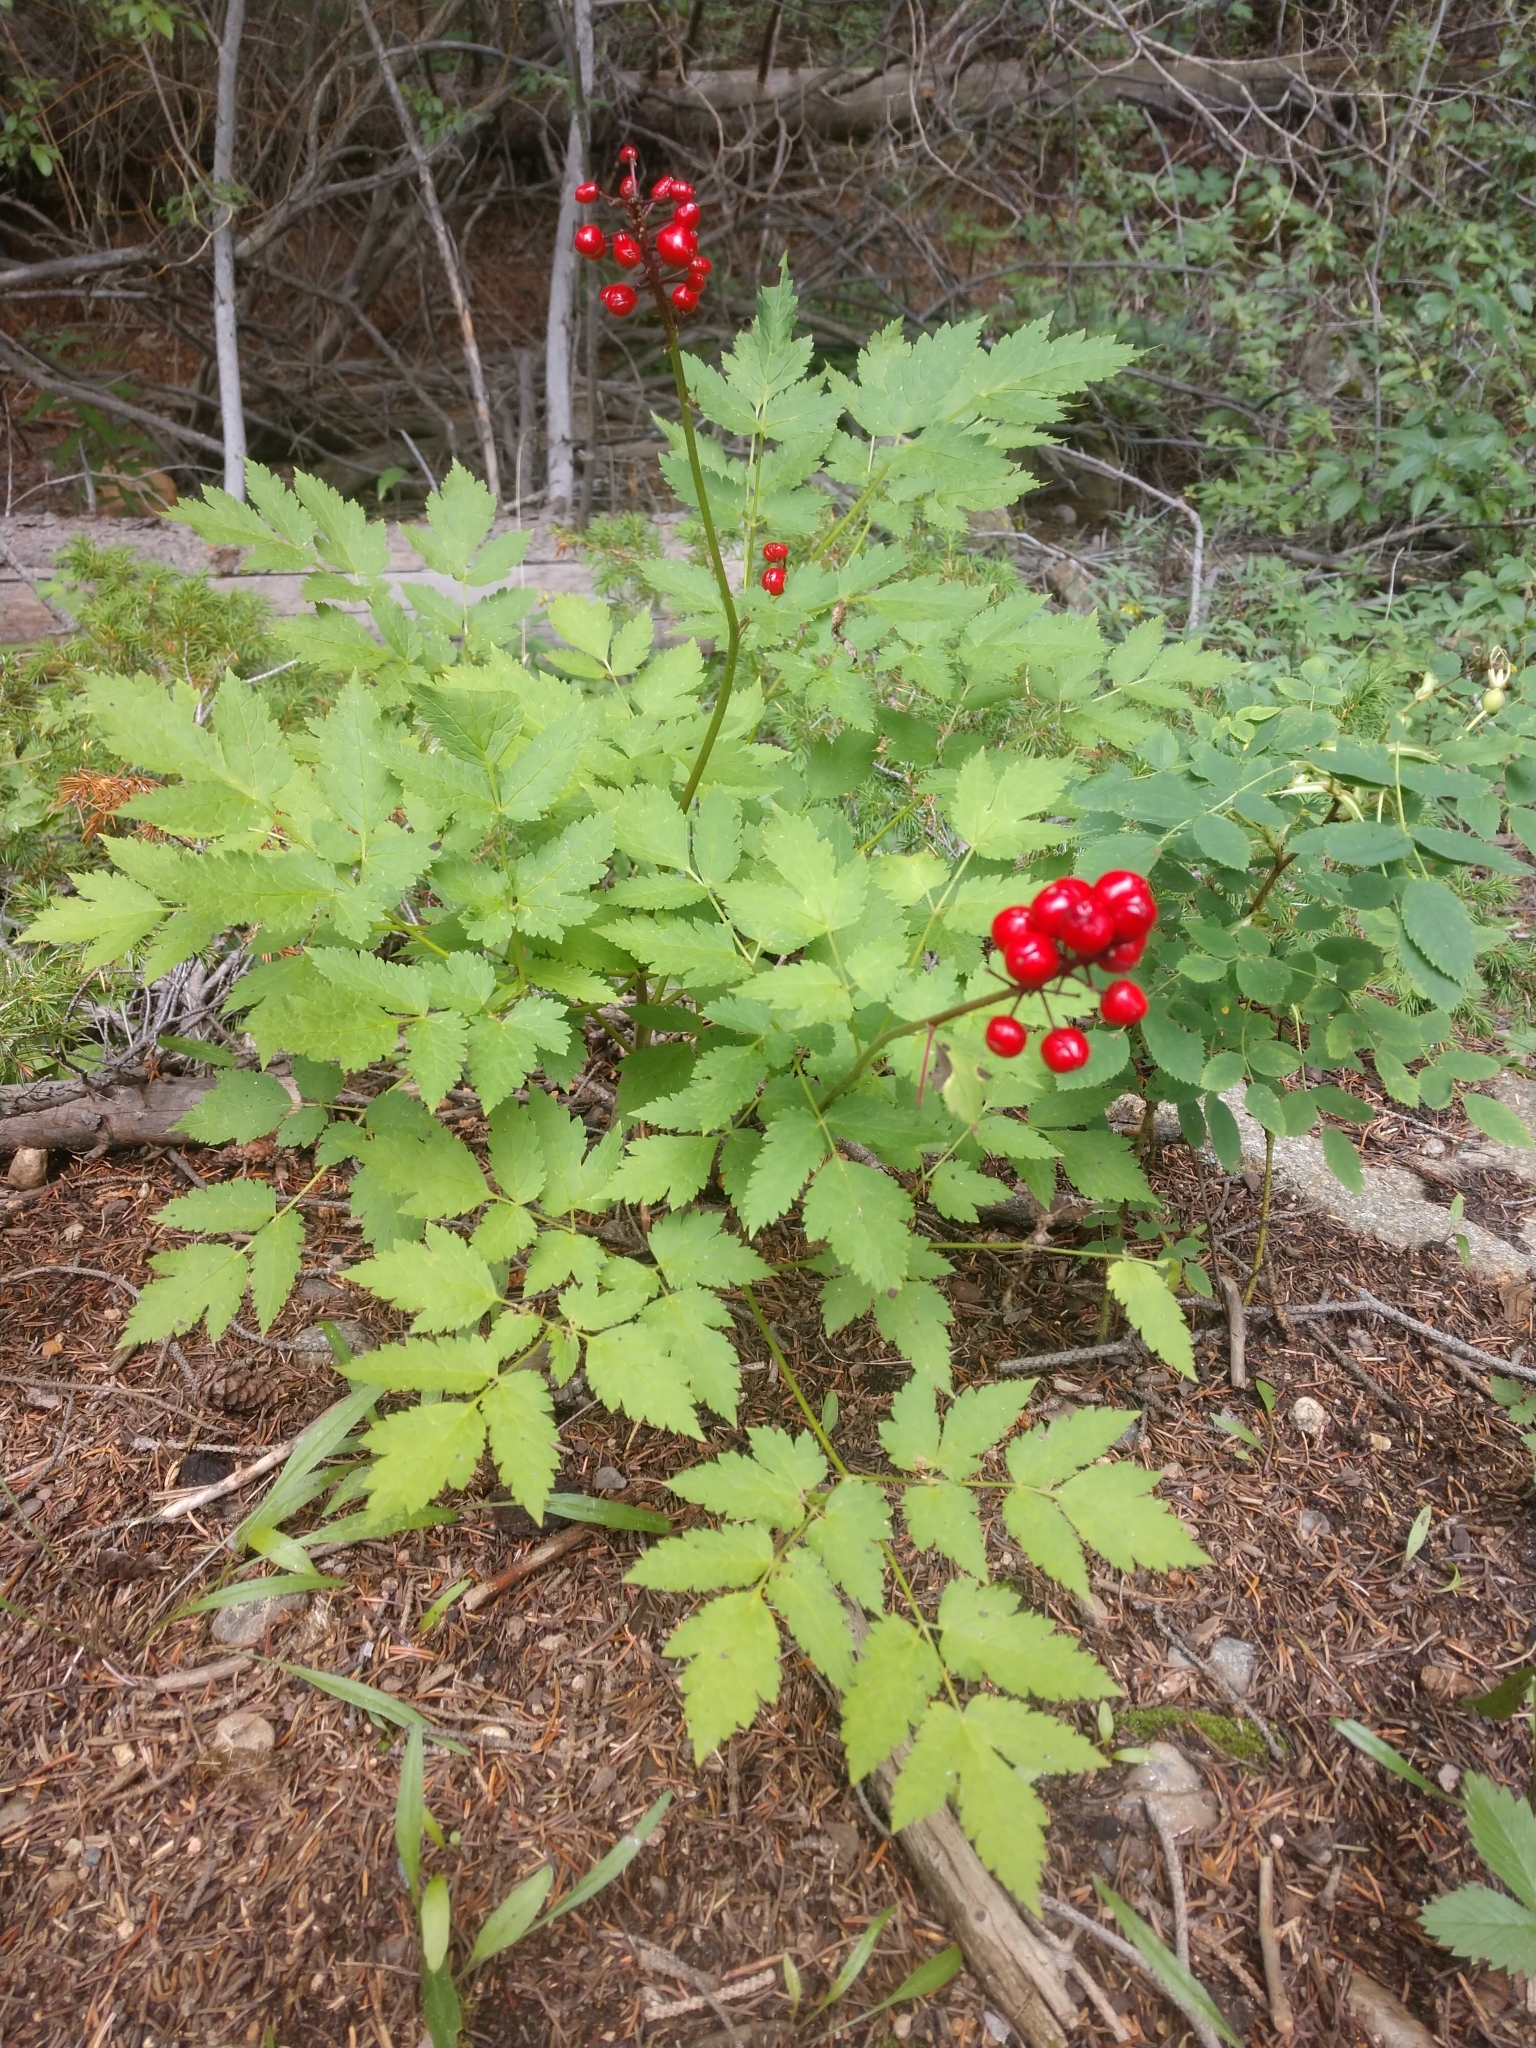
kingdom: Plantae
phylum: Tracheophyta
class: Magnoliopsida
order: Ranunculales
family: Ranunculaceae
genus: Actaea
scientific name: Actaea rubra
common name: Red baneberry
